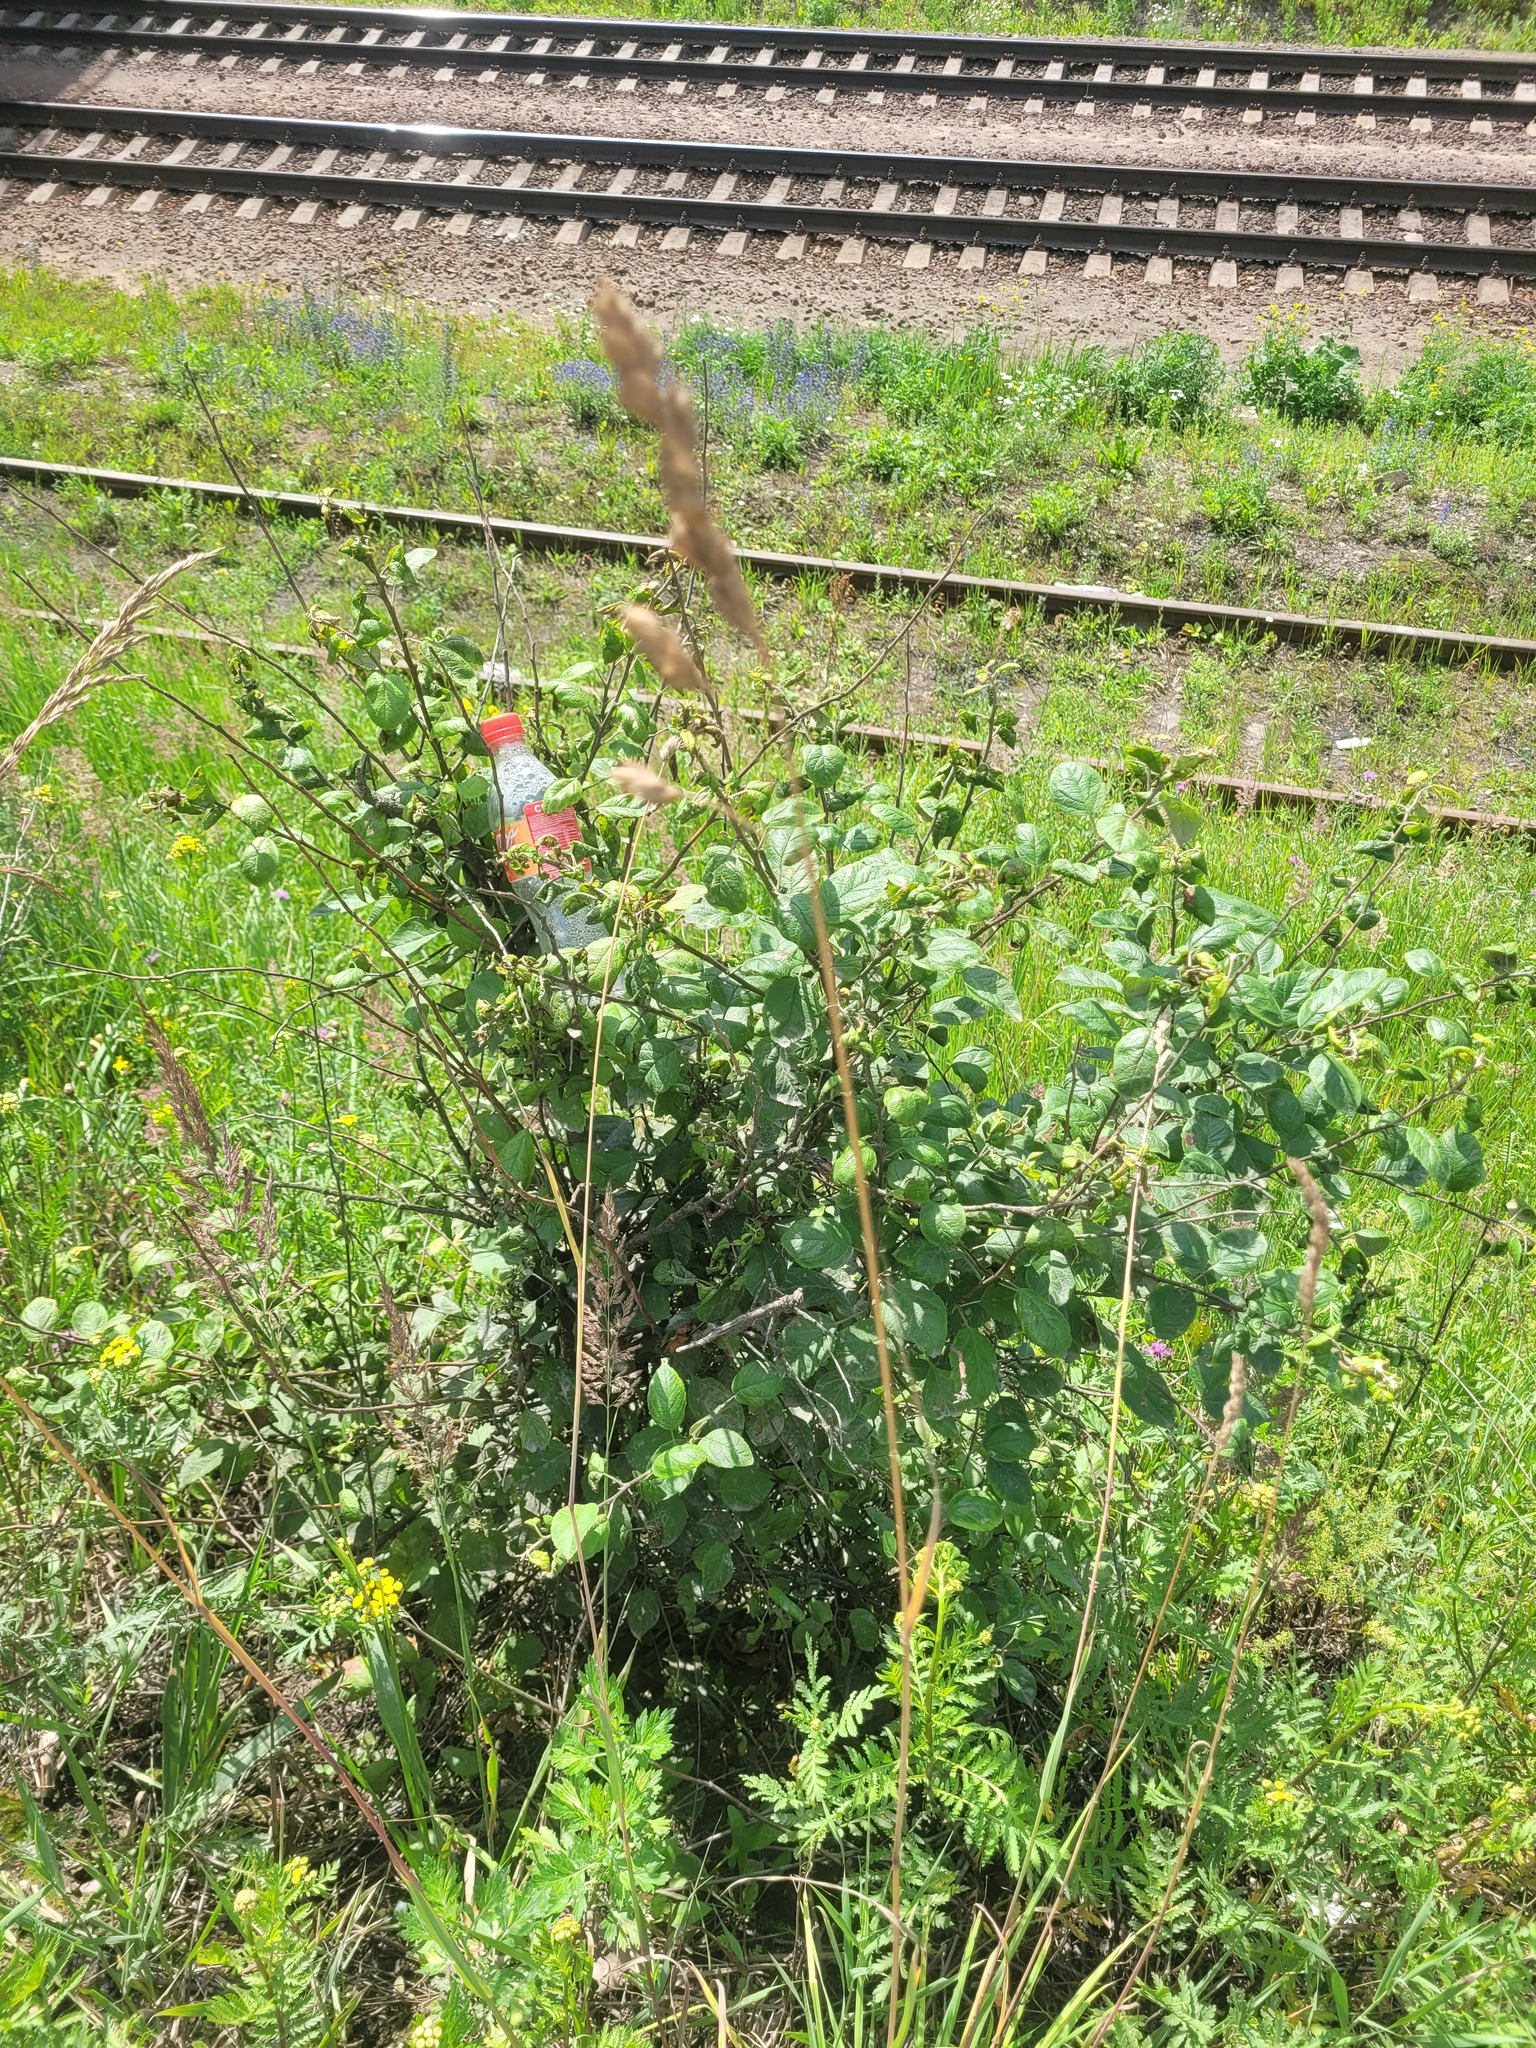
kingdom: Plantae
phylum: Tracheophyta
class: Magnoliopsida
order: Rosales
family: Rosaceae
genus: Malus
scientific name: Malus domestica
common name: Apple
